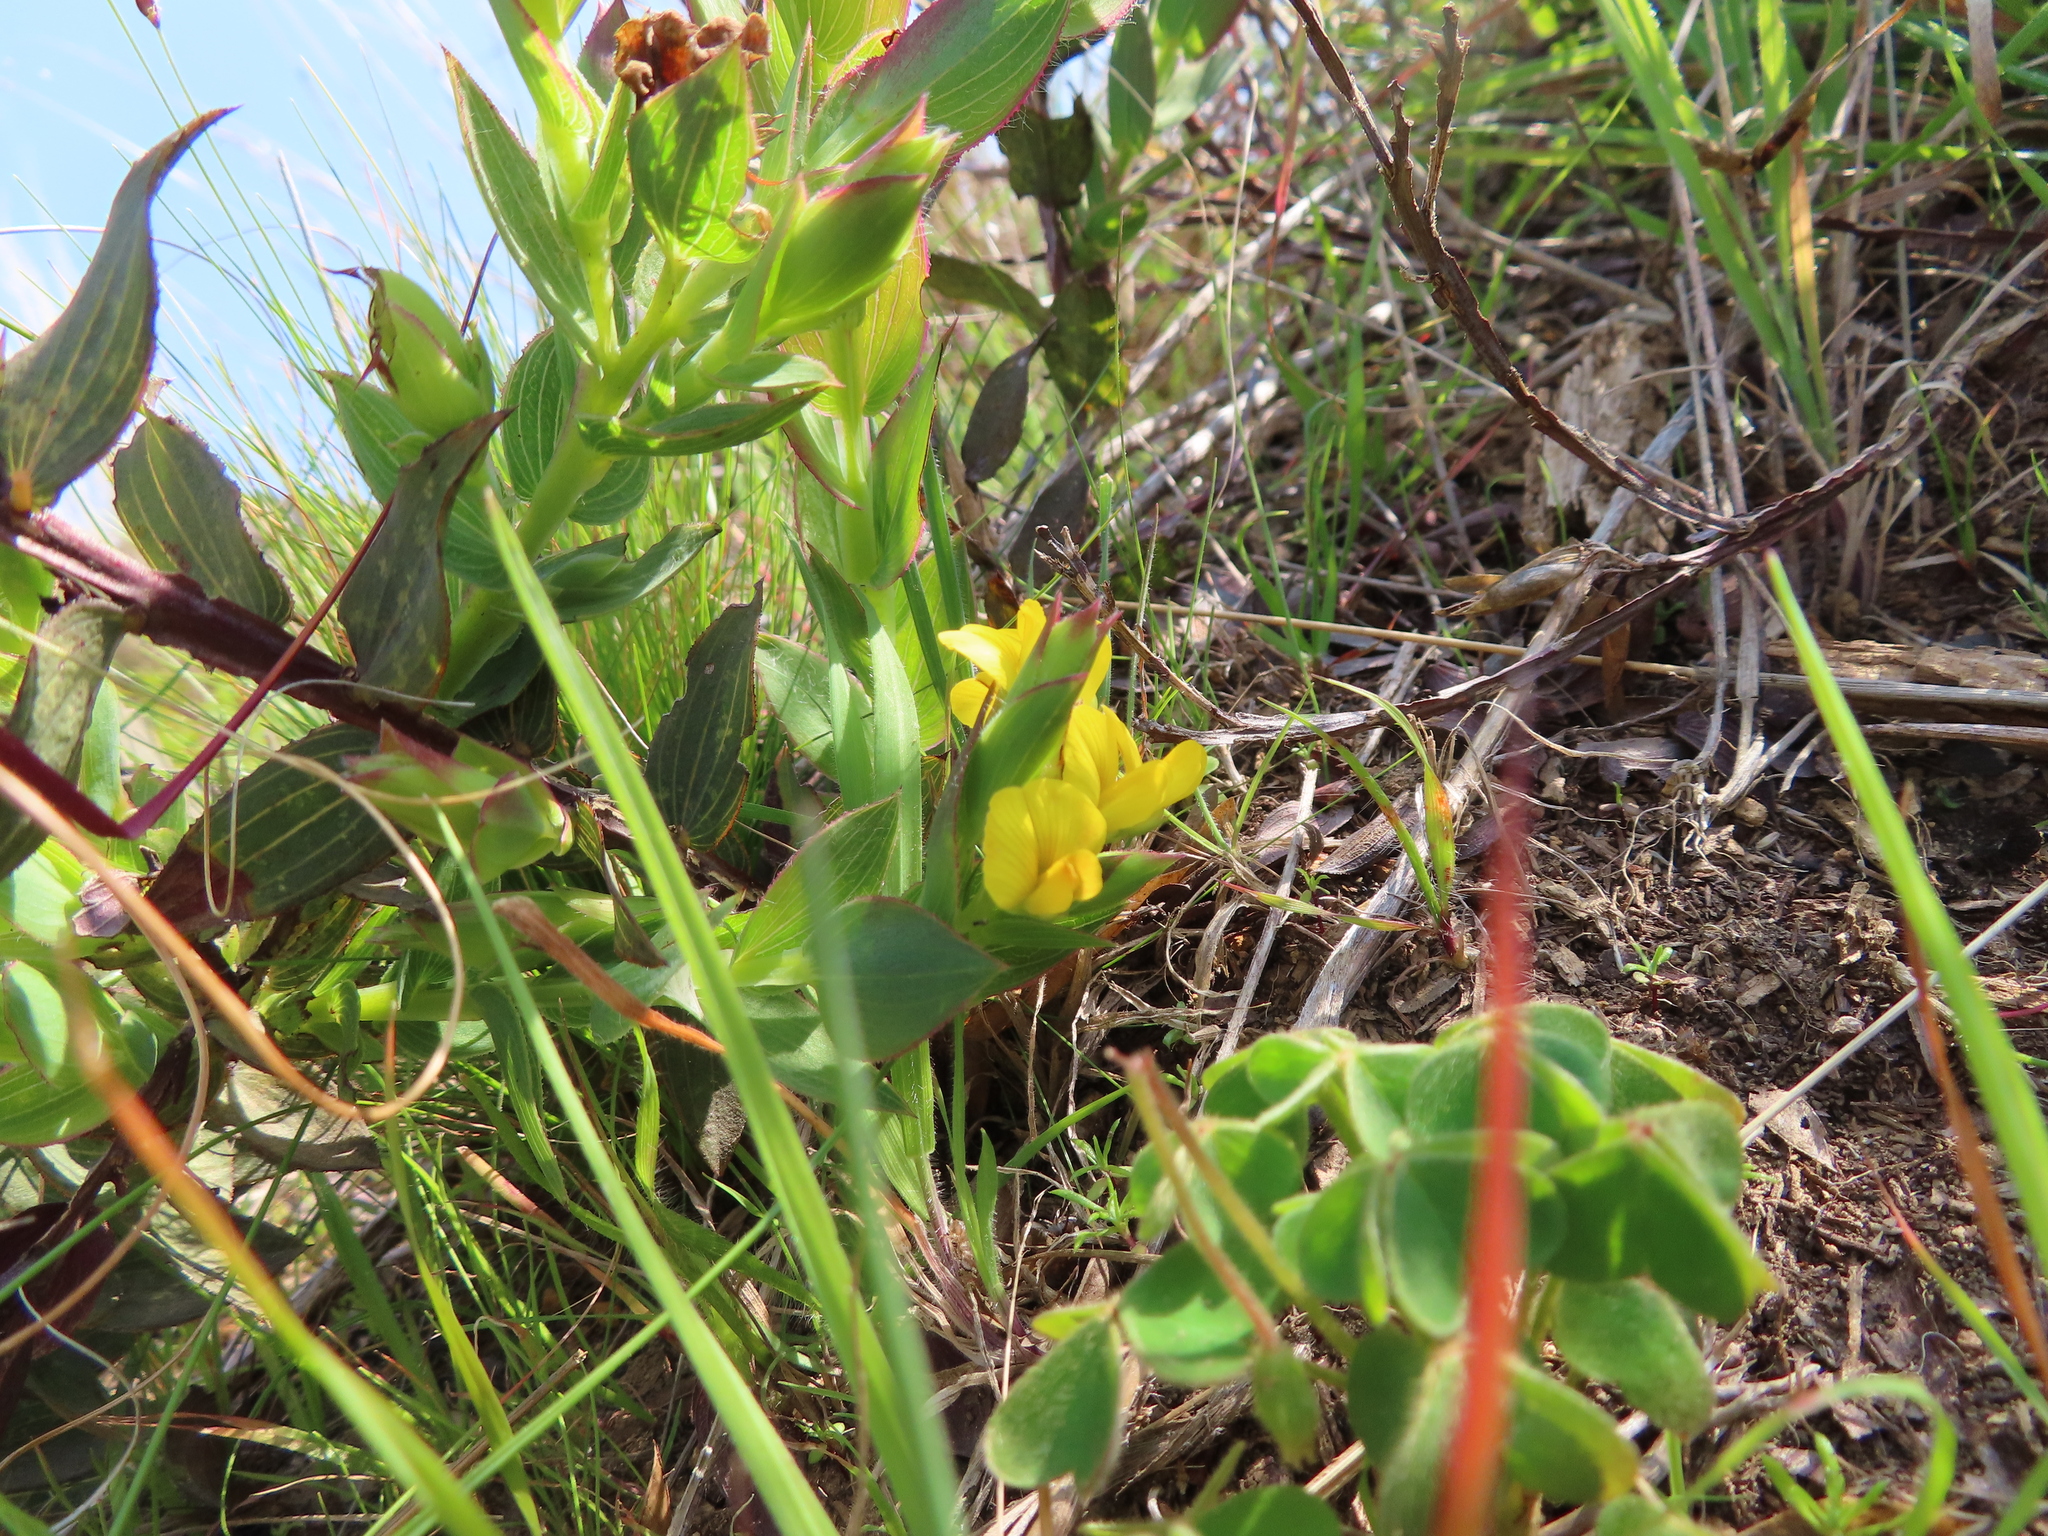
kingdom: Plantae
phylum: Tracheophyta
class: Magnoliopsida
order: Fabales
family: Fabaceae
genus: Aspalathus
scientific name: Aspalathus crenata
